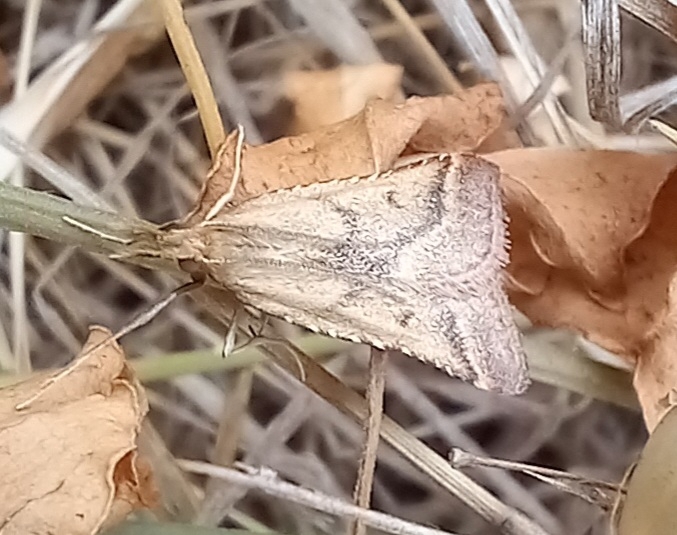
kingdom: Animalia
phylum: Arthropoda
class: Insecta
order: Lepidoptera
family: Pyralidae
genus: Synaphe
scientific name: Synaphe punctalis
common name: Long-legged tabby
